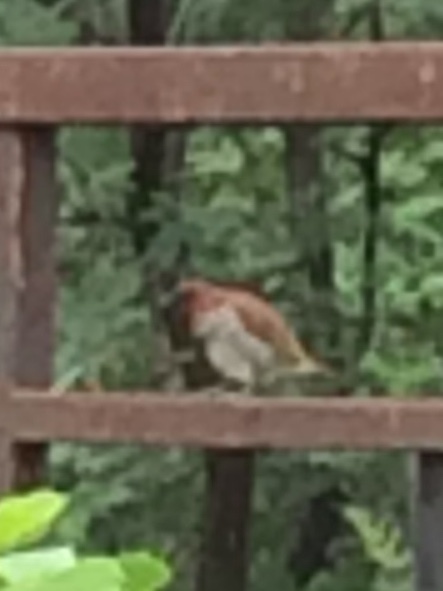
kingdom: Animalia
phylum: Chordata
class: Aves
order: Passeriformes
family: Estrildidae
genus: Lonchura
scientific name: Lonchura punctulata
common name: Scaly-breasted munia
